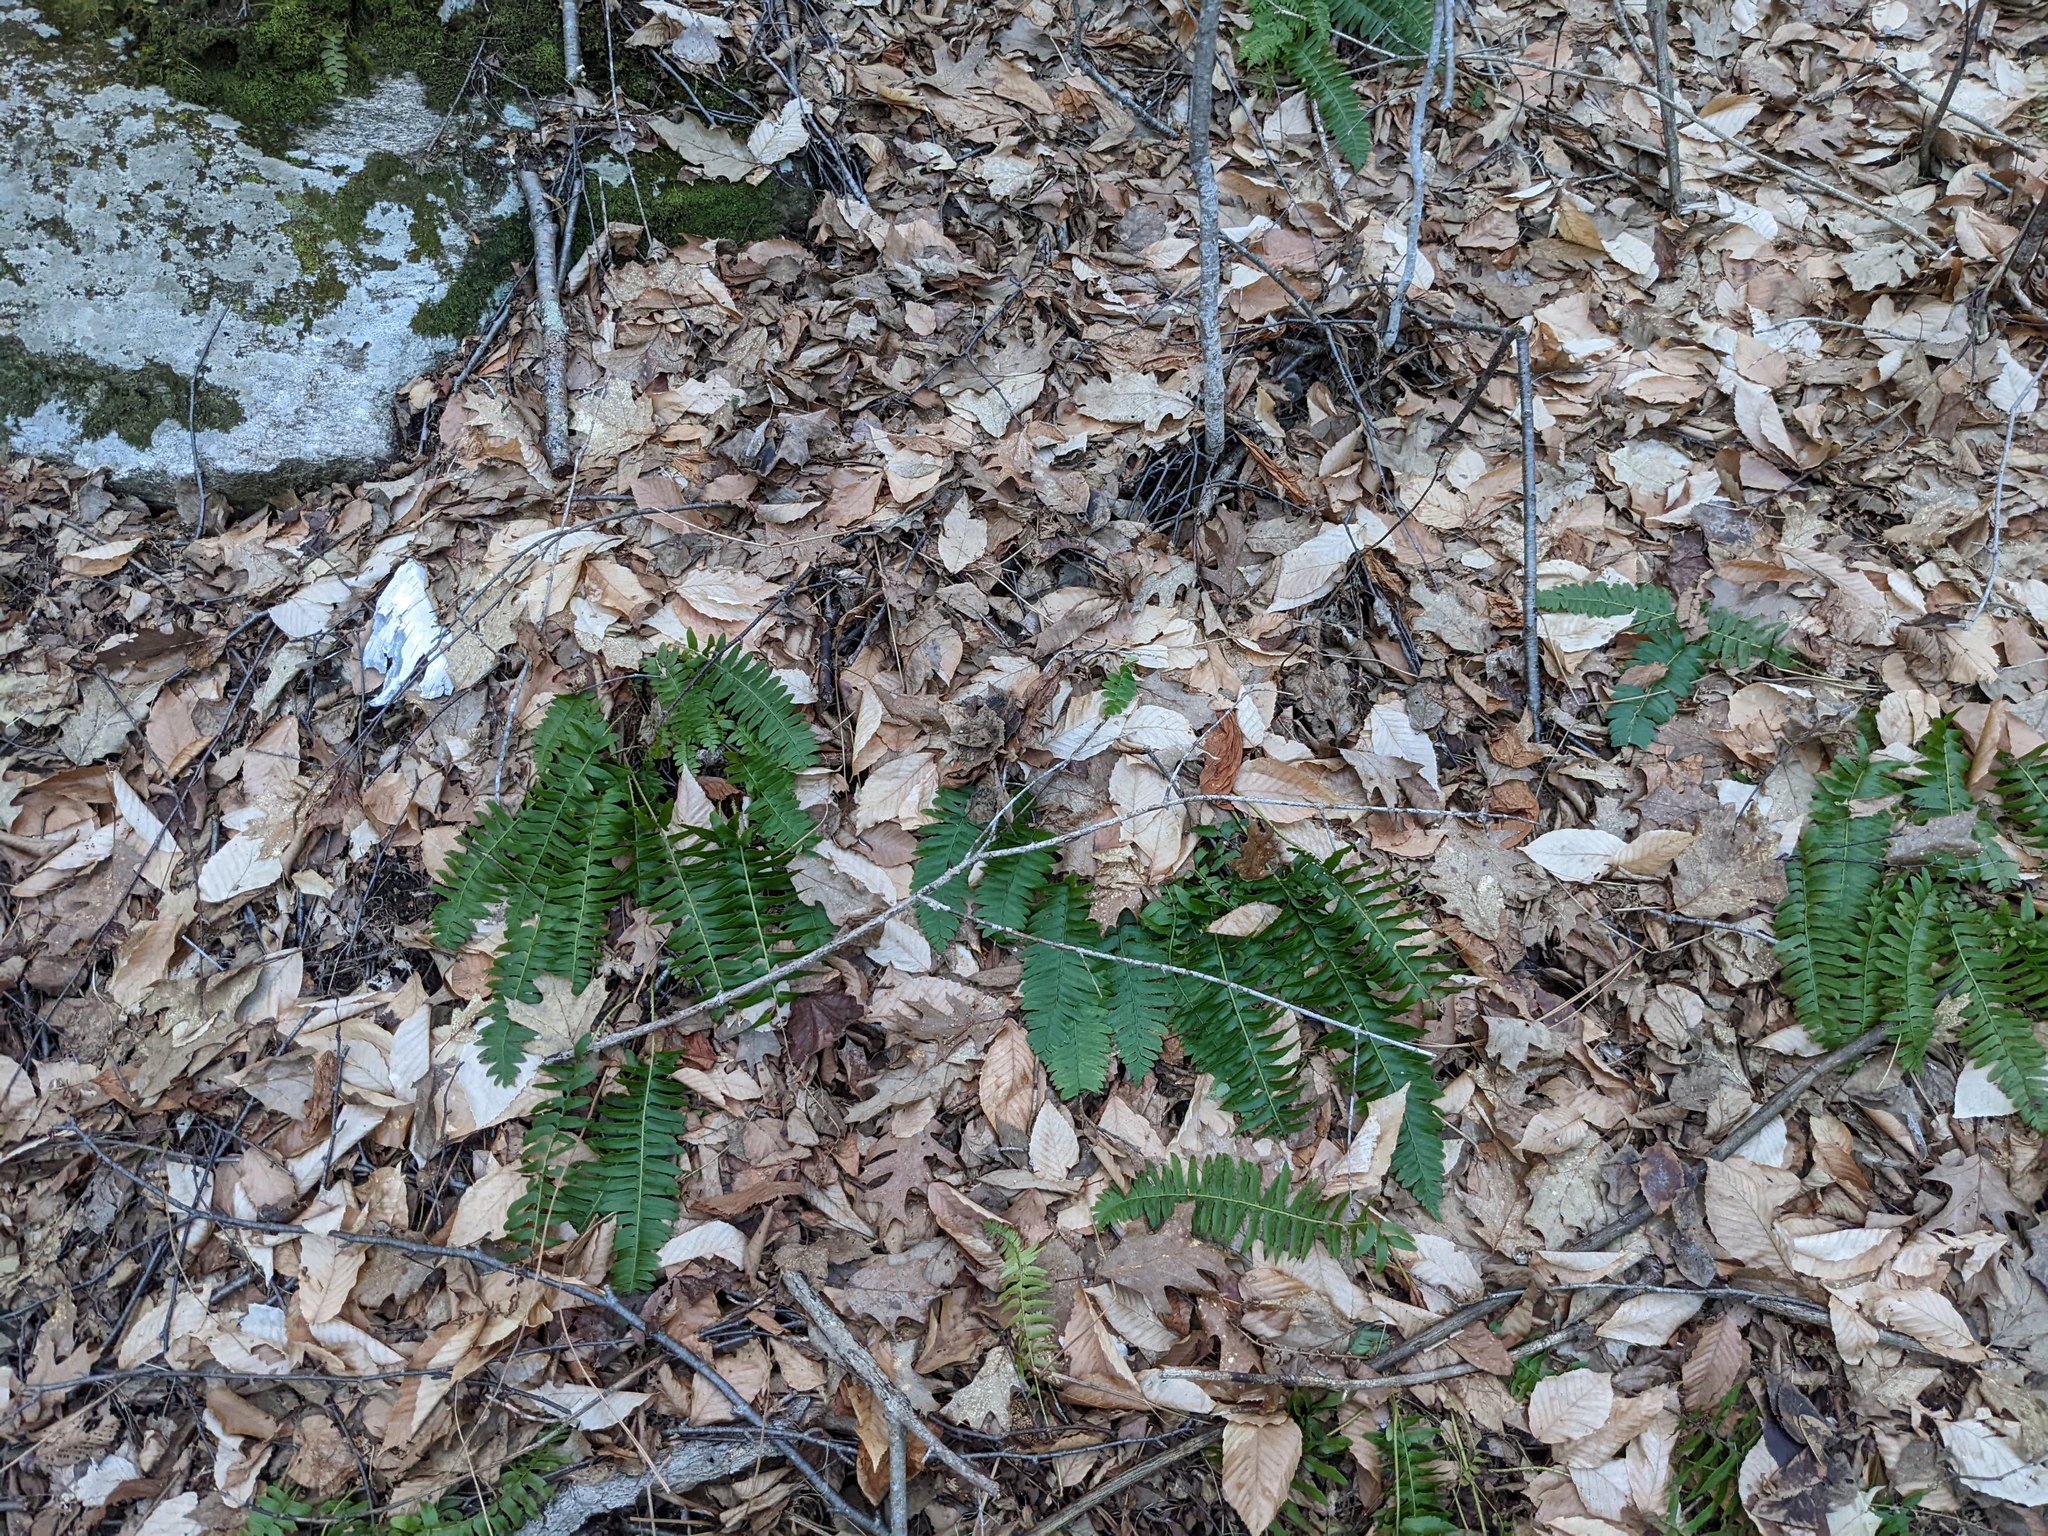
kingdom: Plantae
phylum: Tracheophyta
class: Polypodiopsida
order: Polypodiales
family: Dryopteridaceae
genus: Polystichum
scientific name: Polystichum acrostichoides
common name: Christmas fern
